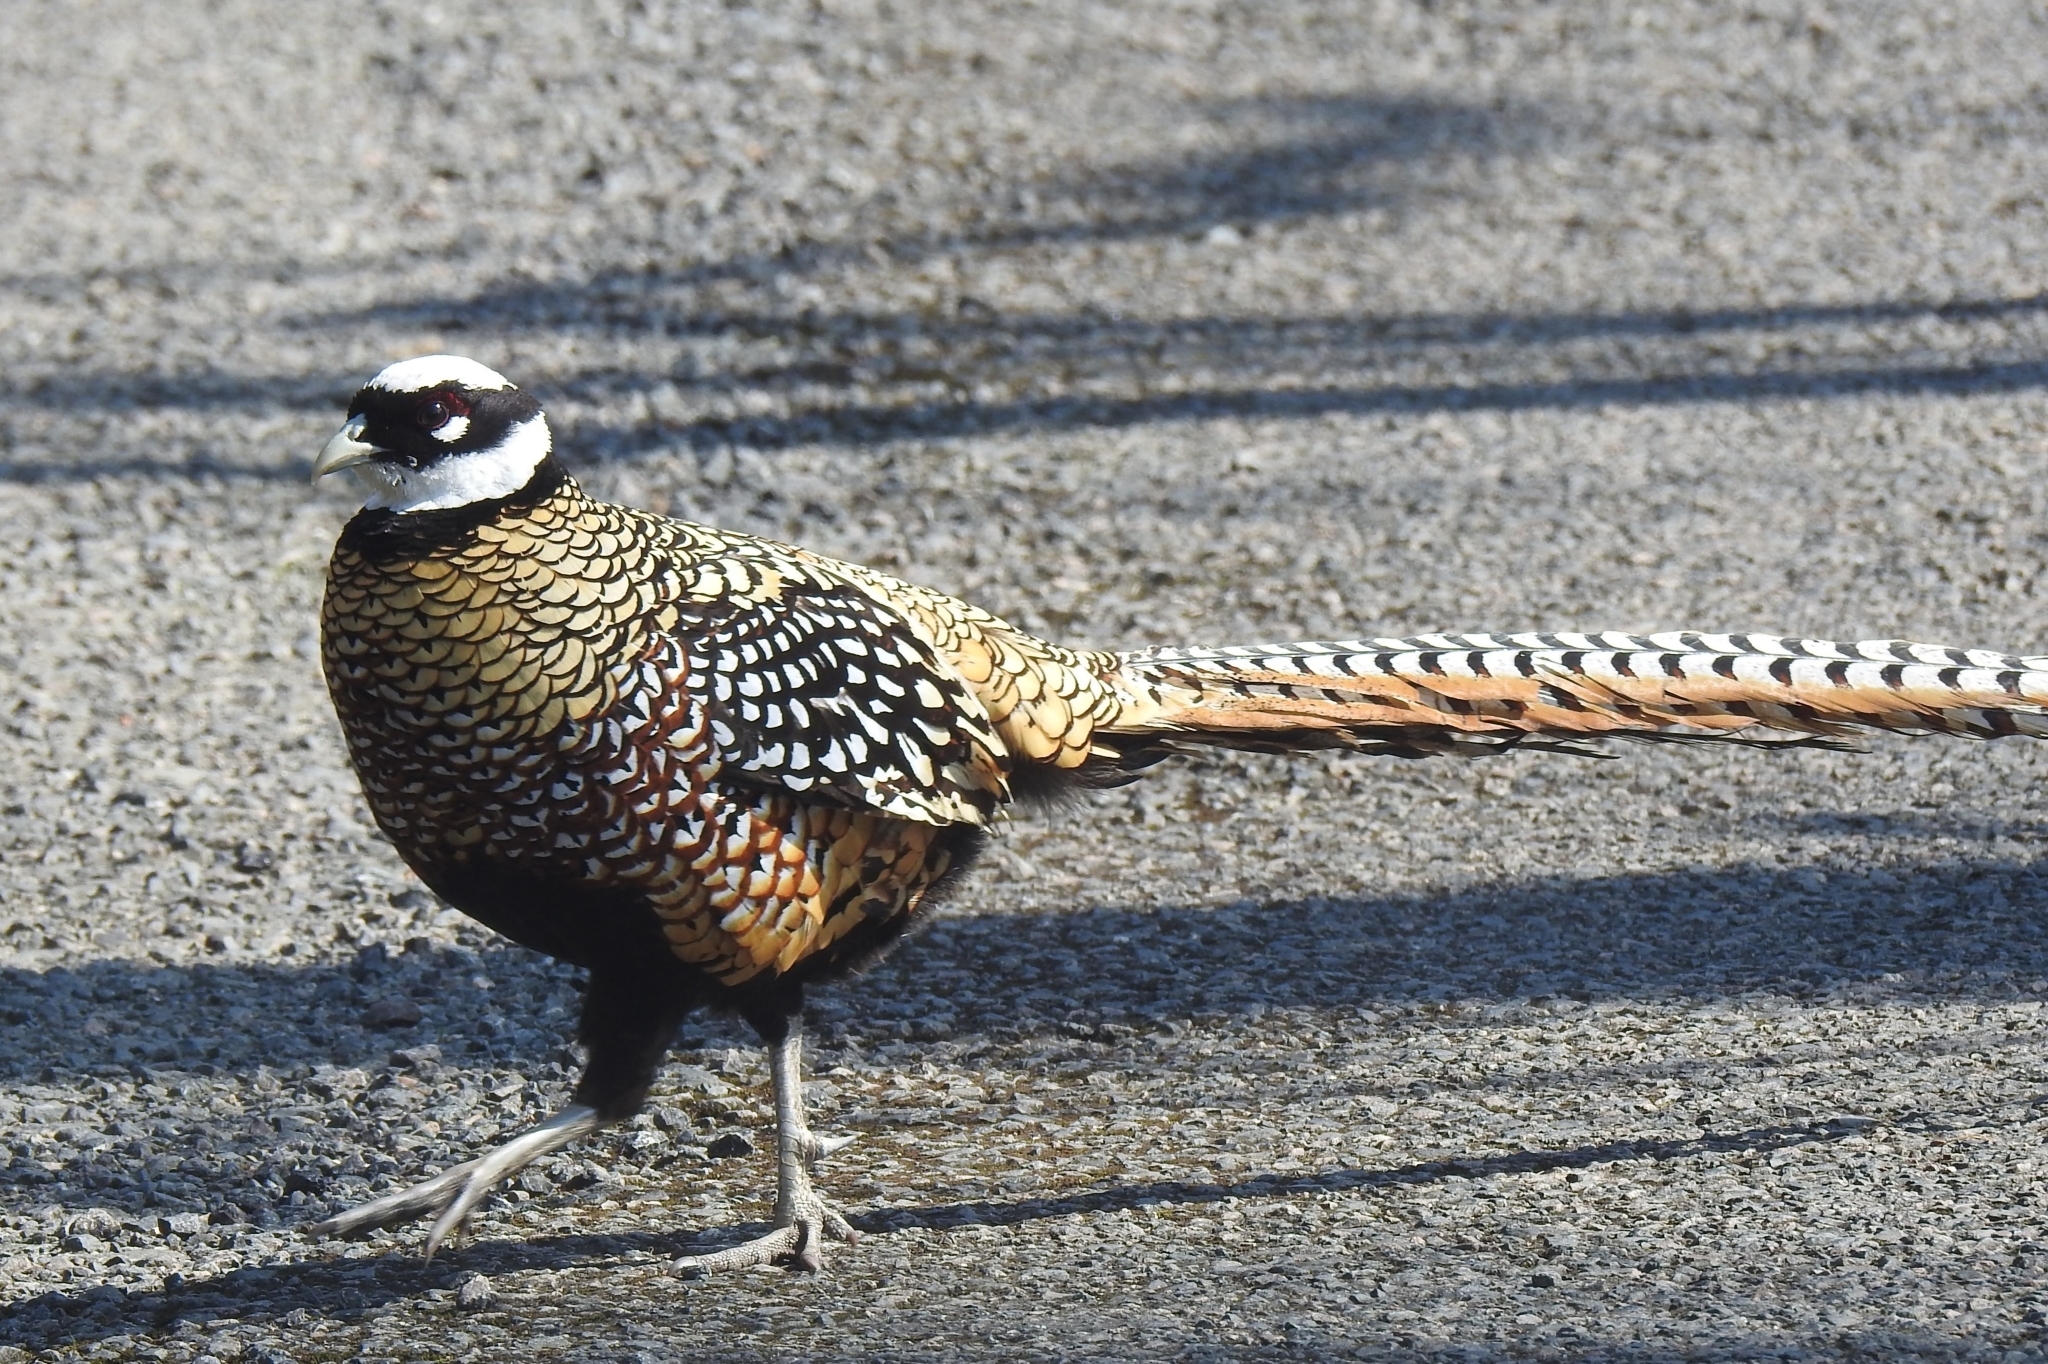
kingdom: Animalia
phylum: Chordata
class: Aves
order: Galliformes
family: Phasianidae
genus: Syrmaticus
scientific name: Syrmaticus reevesii
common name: Reeves's pheasant
